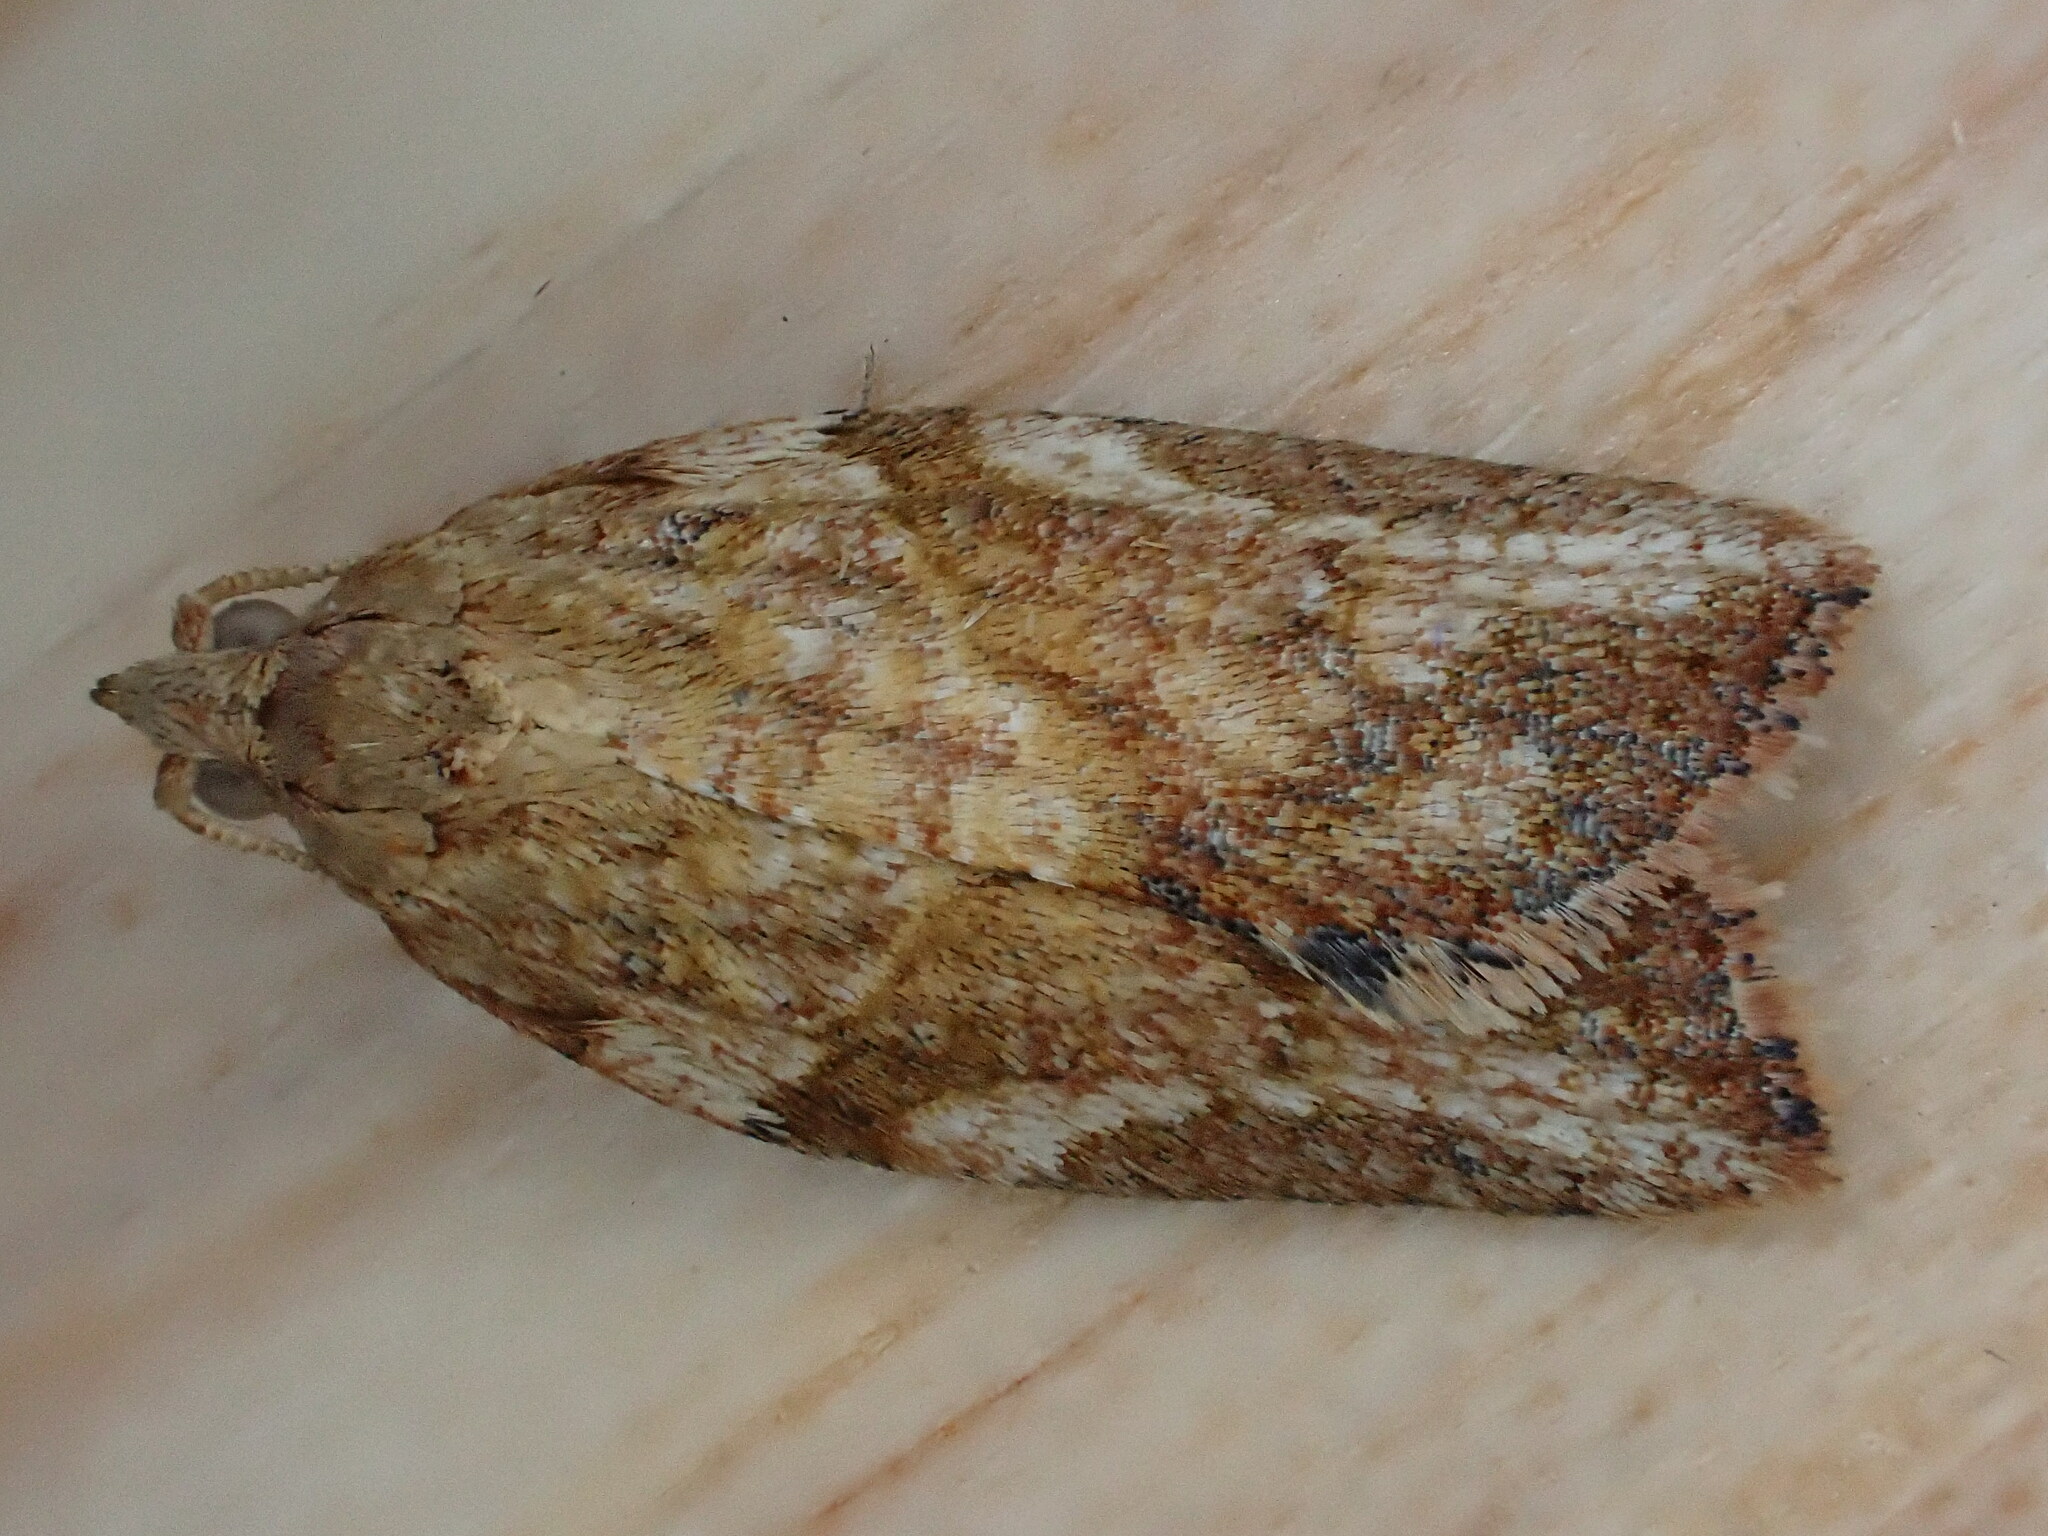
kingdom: Animalia
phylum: Arthropoda
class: Insecta
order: Lepidoptera
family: Tortricidae
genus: Epiphyas
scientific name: Epiphyas postvittana
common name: Light brown apple moth
